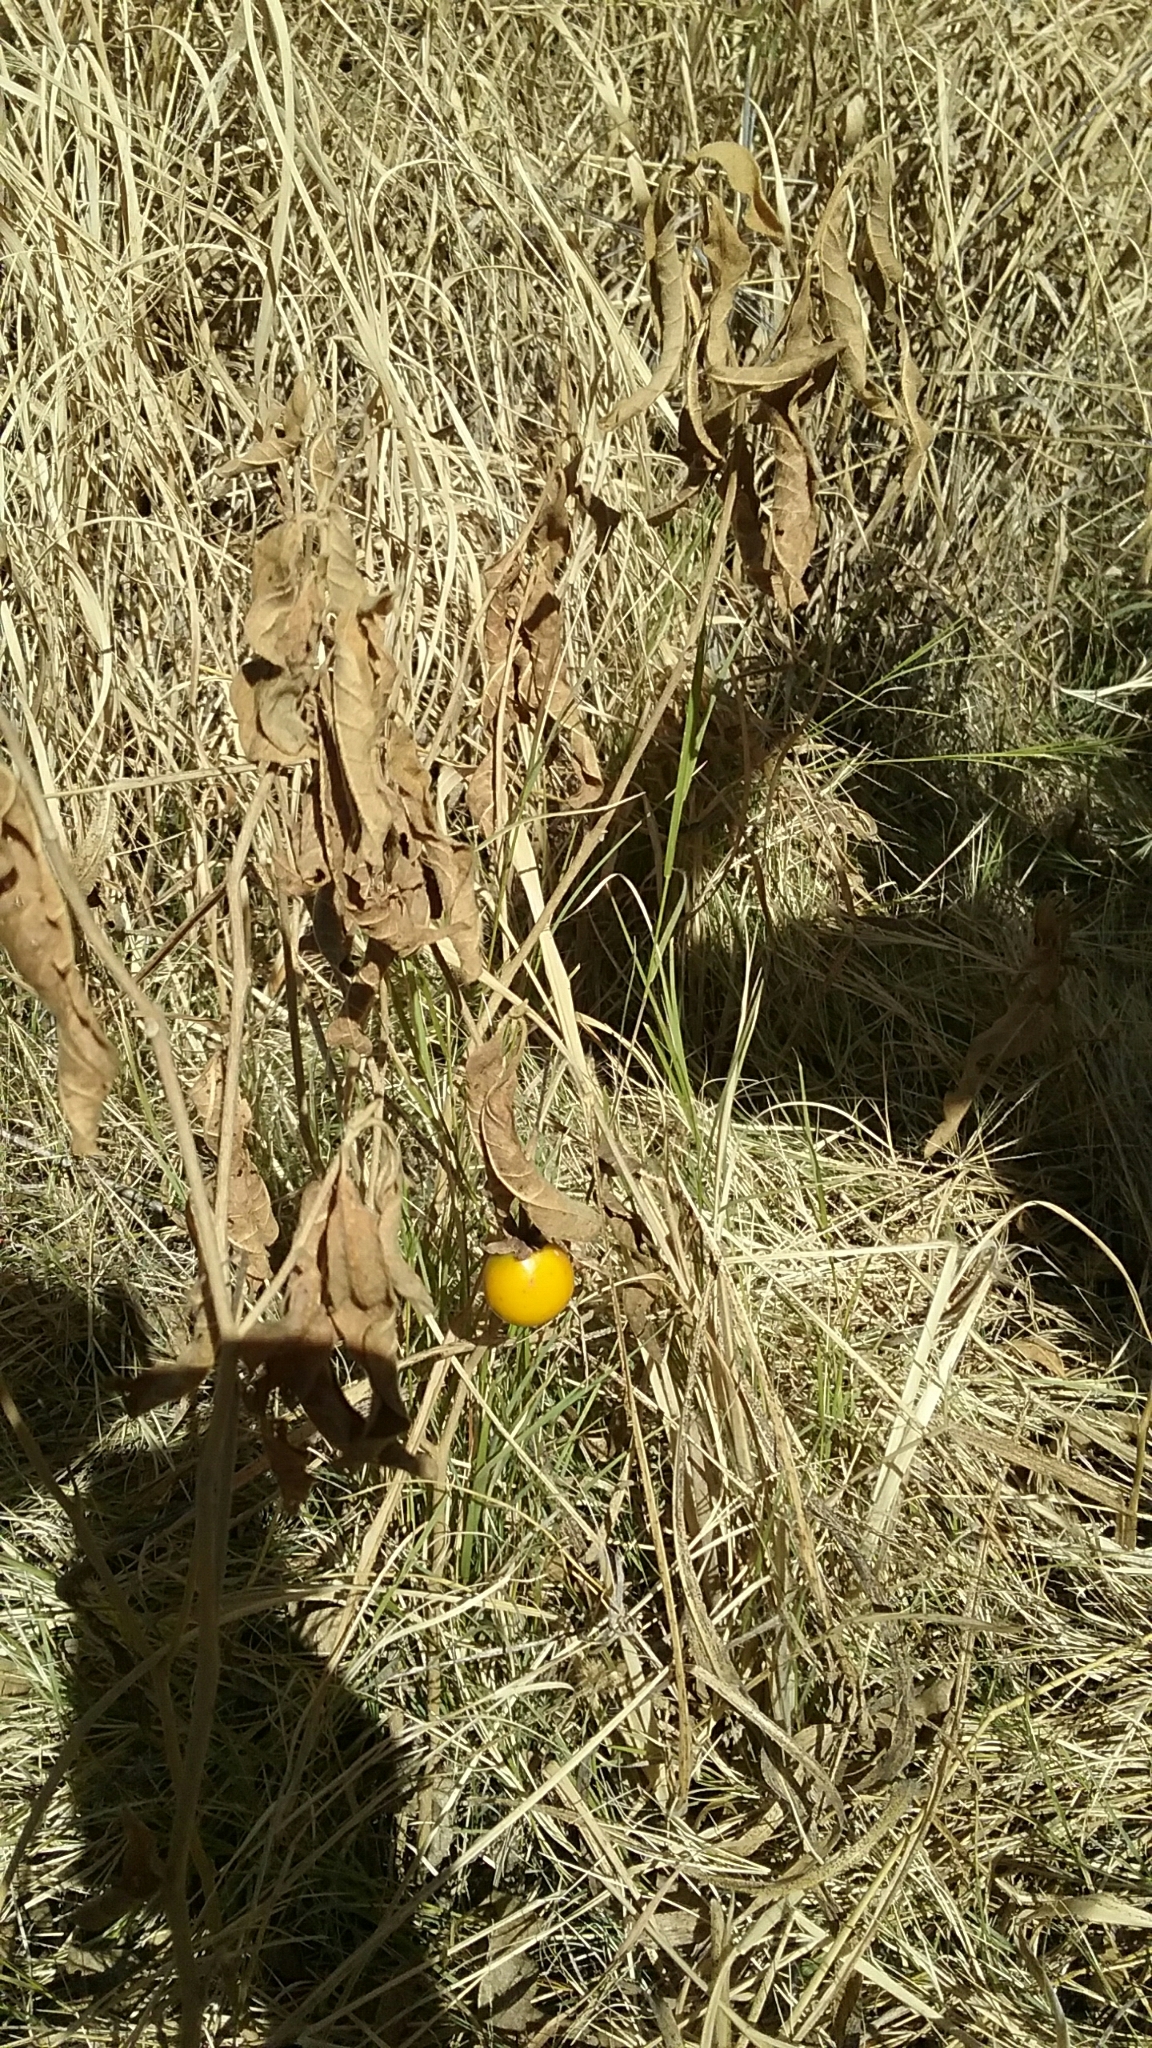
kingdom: Plantae
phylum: Tracheophyta
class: Magnoliopsida
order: Solanales
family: Solanaceae
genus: Solanum
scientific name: Solanum campylacanthum
